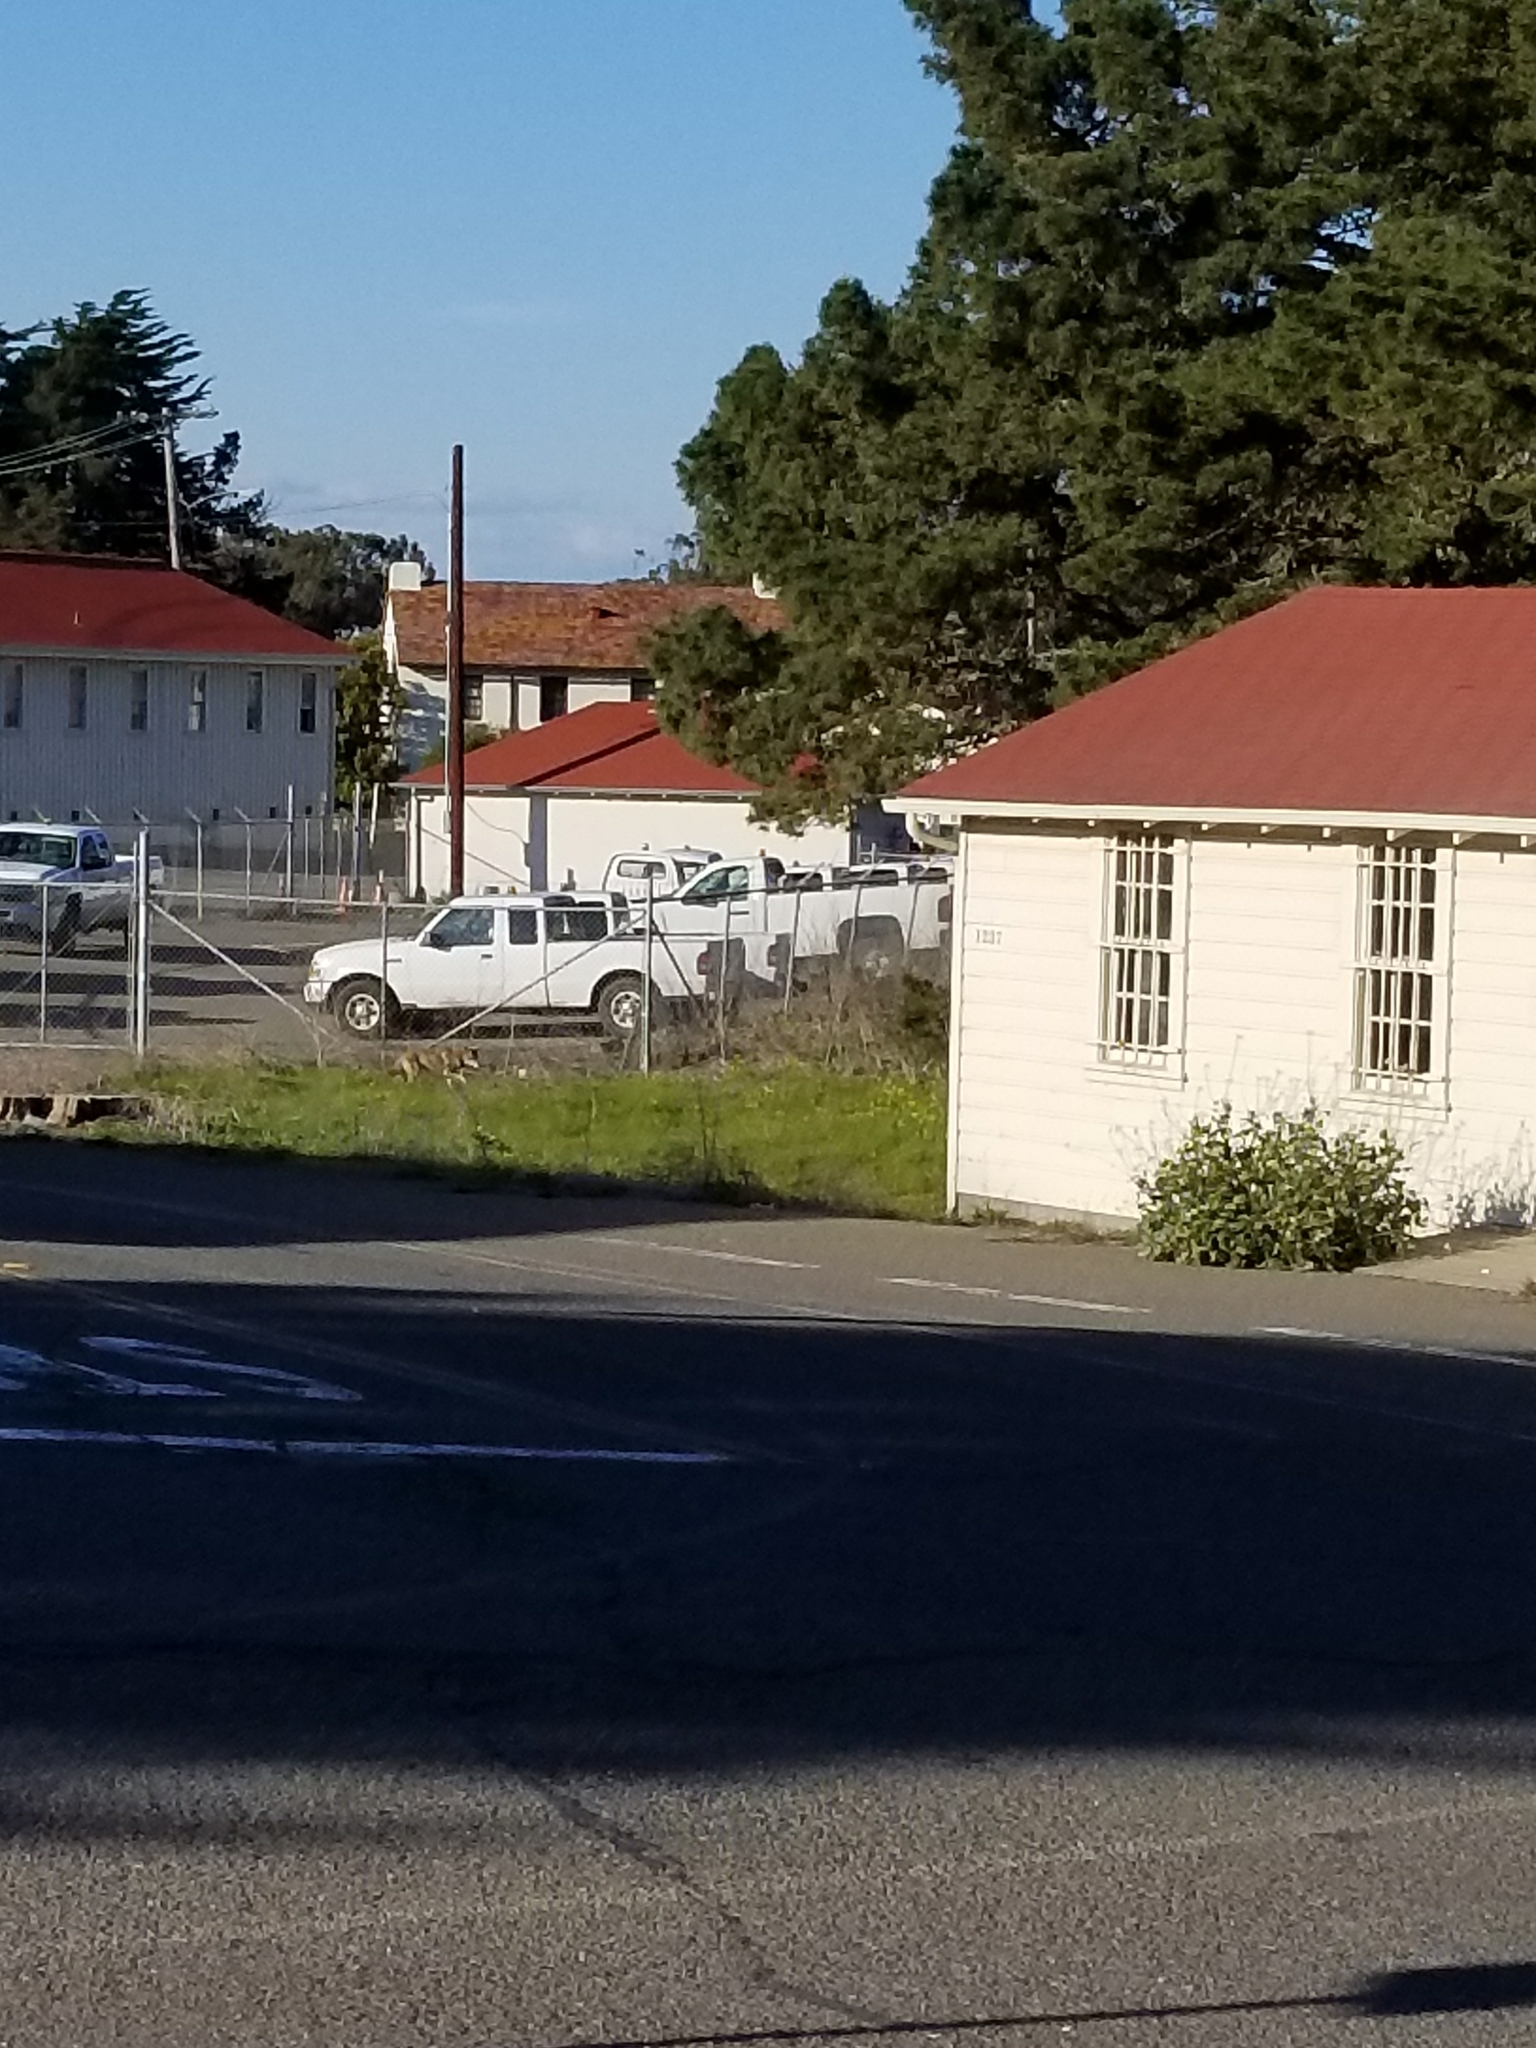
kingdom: Animalia
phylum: Chordata
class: Mammalia
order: Carnivora
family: Canidae
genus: Canis
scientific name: Canis latrans
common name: Coyote
